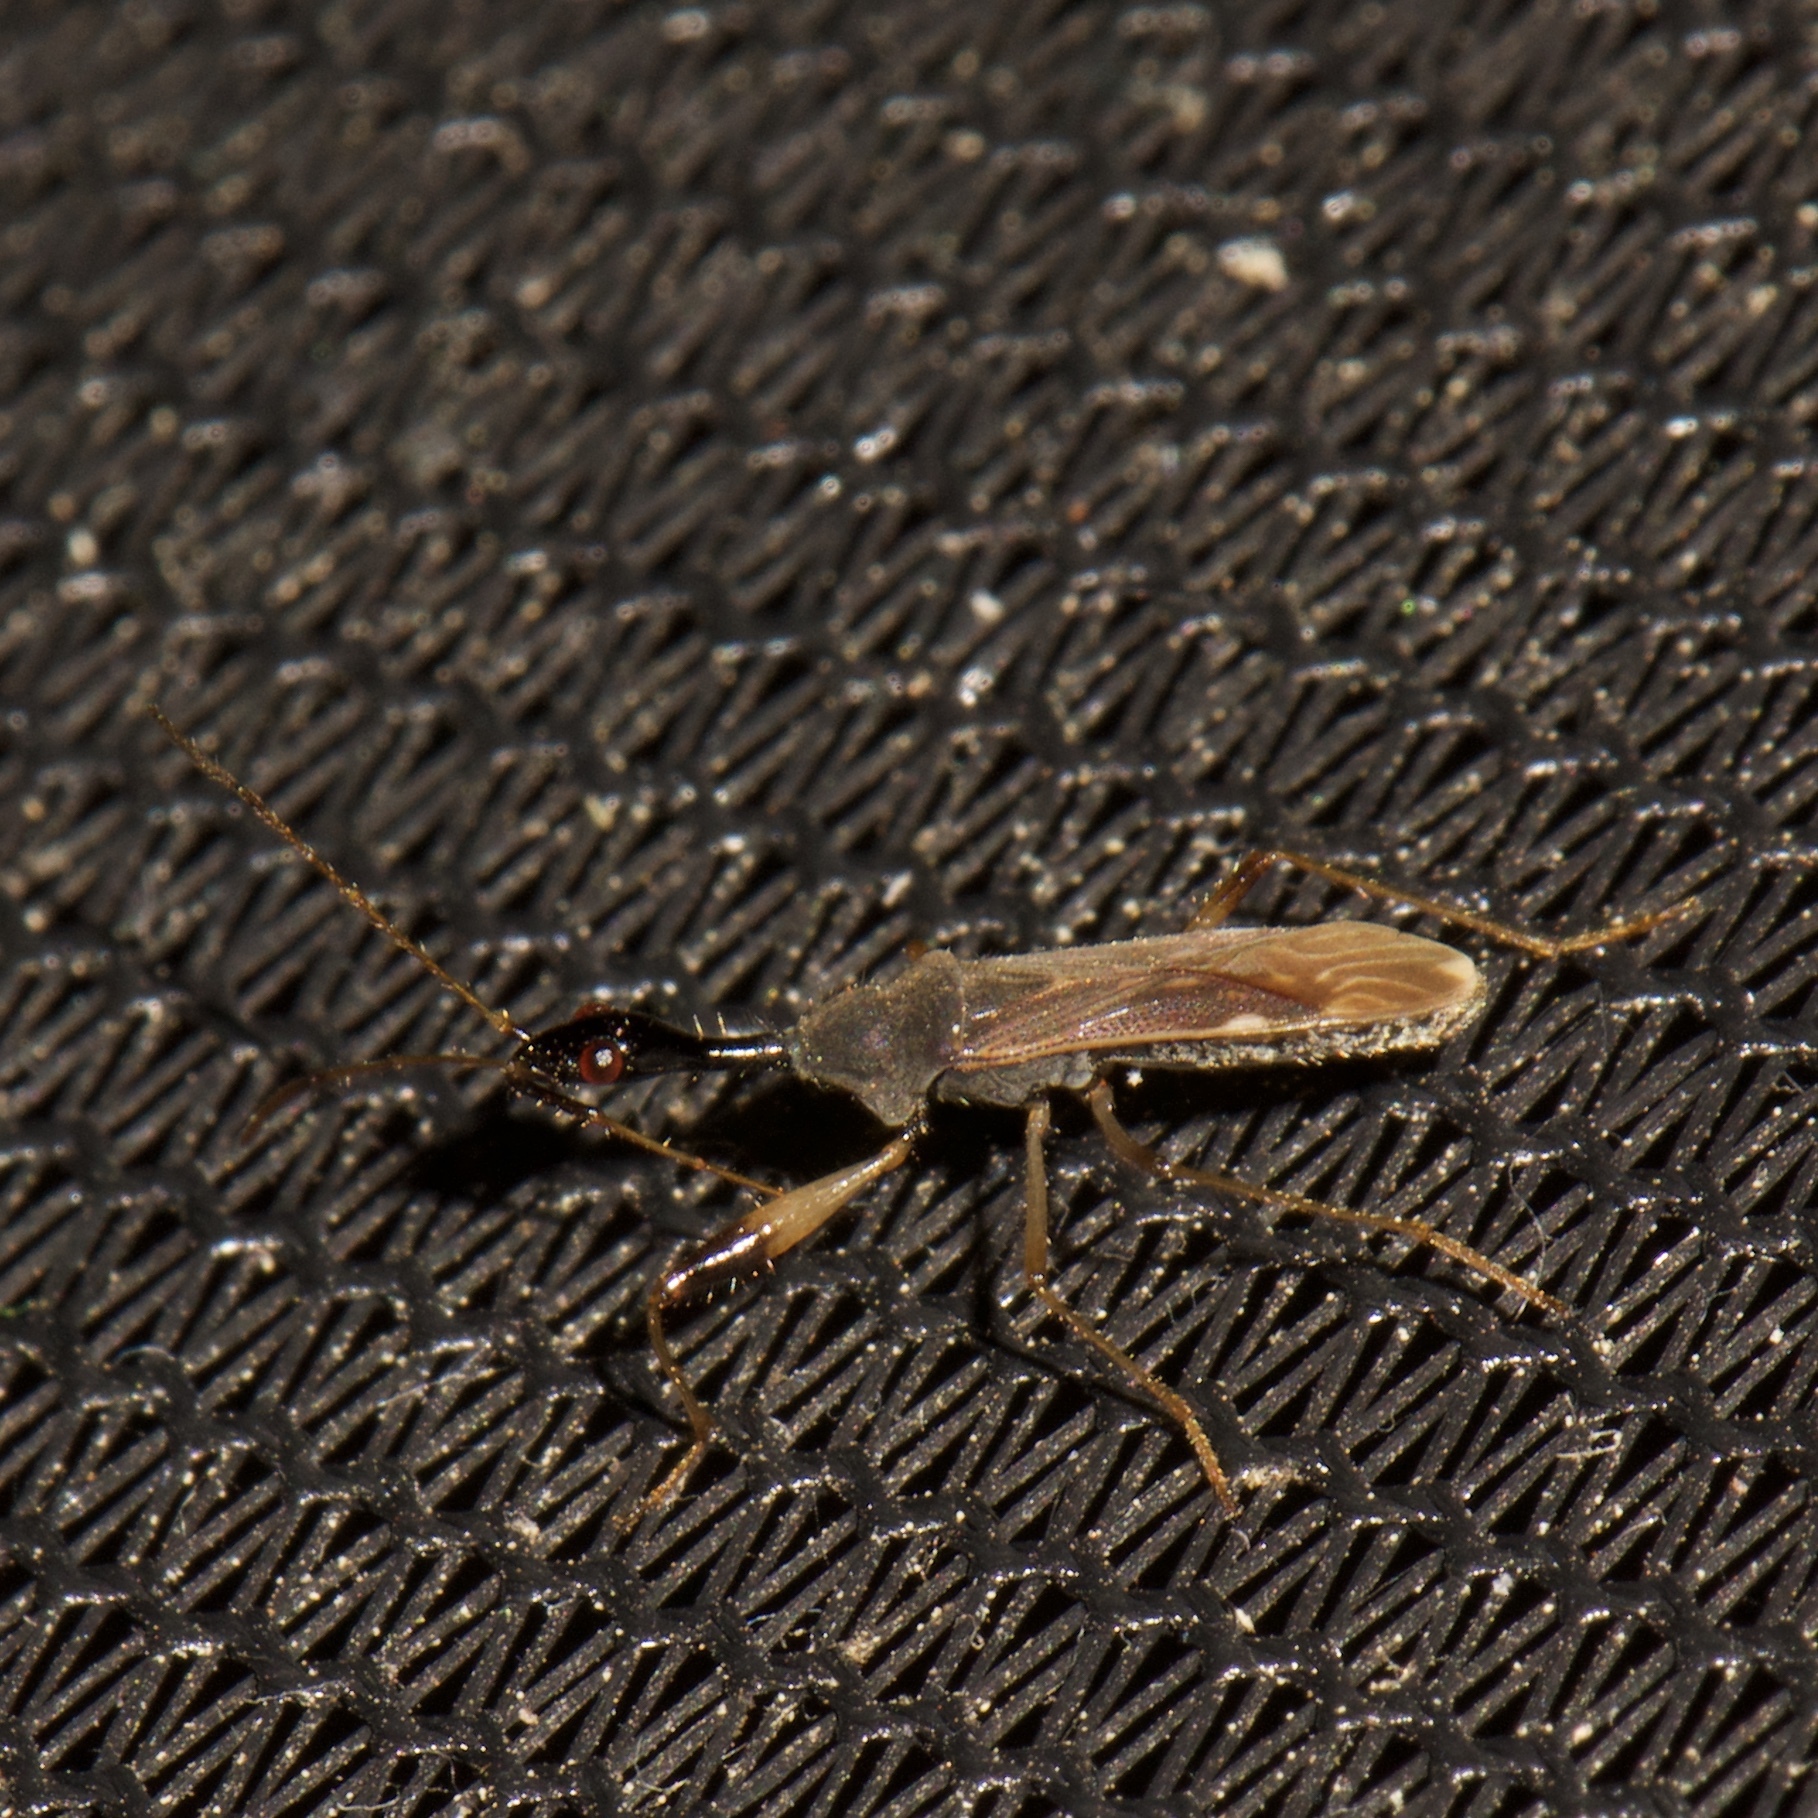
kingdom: Animalia
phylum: Arthropoda
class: Insecta
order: Hemiptera
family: Rhyparochromidae
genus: Myodocha
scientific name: Myodocha serripes
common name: Long-necked seed bug
